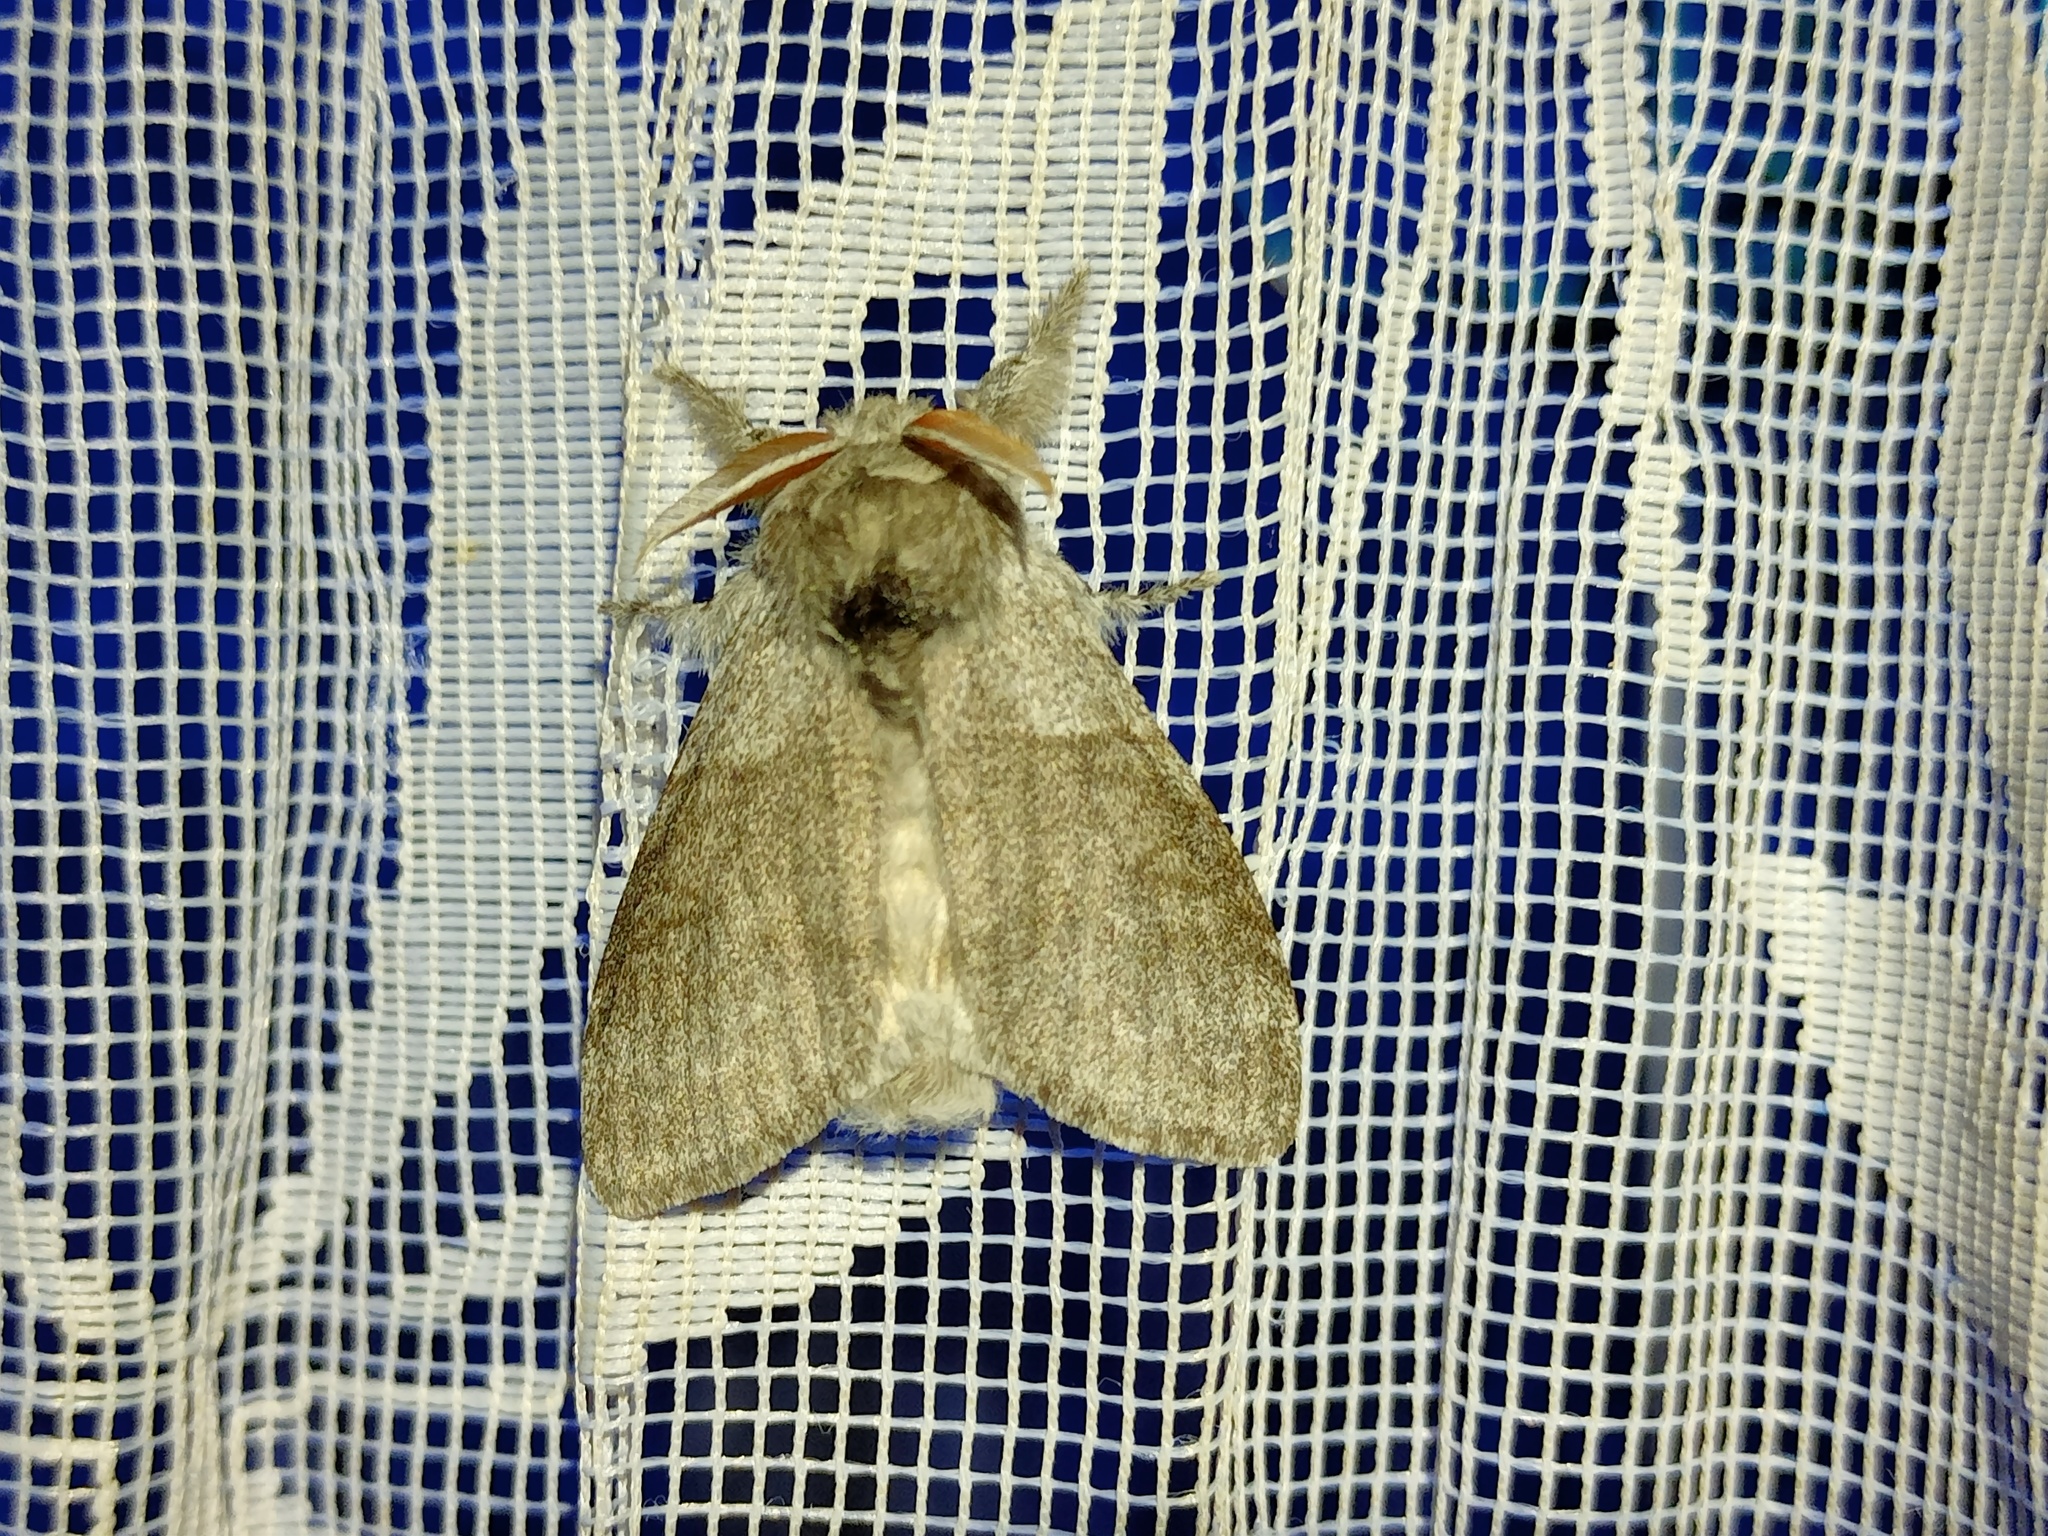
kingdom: Animalia
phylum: Arthropoda
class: Insecta
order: Lepidoptera
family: Erebidae
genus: Calliteara
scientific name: Calliteara pudibunda
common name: Pale tussock
